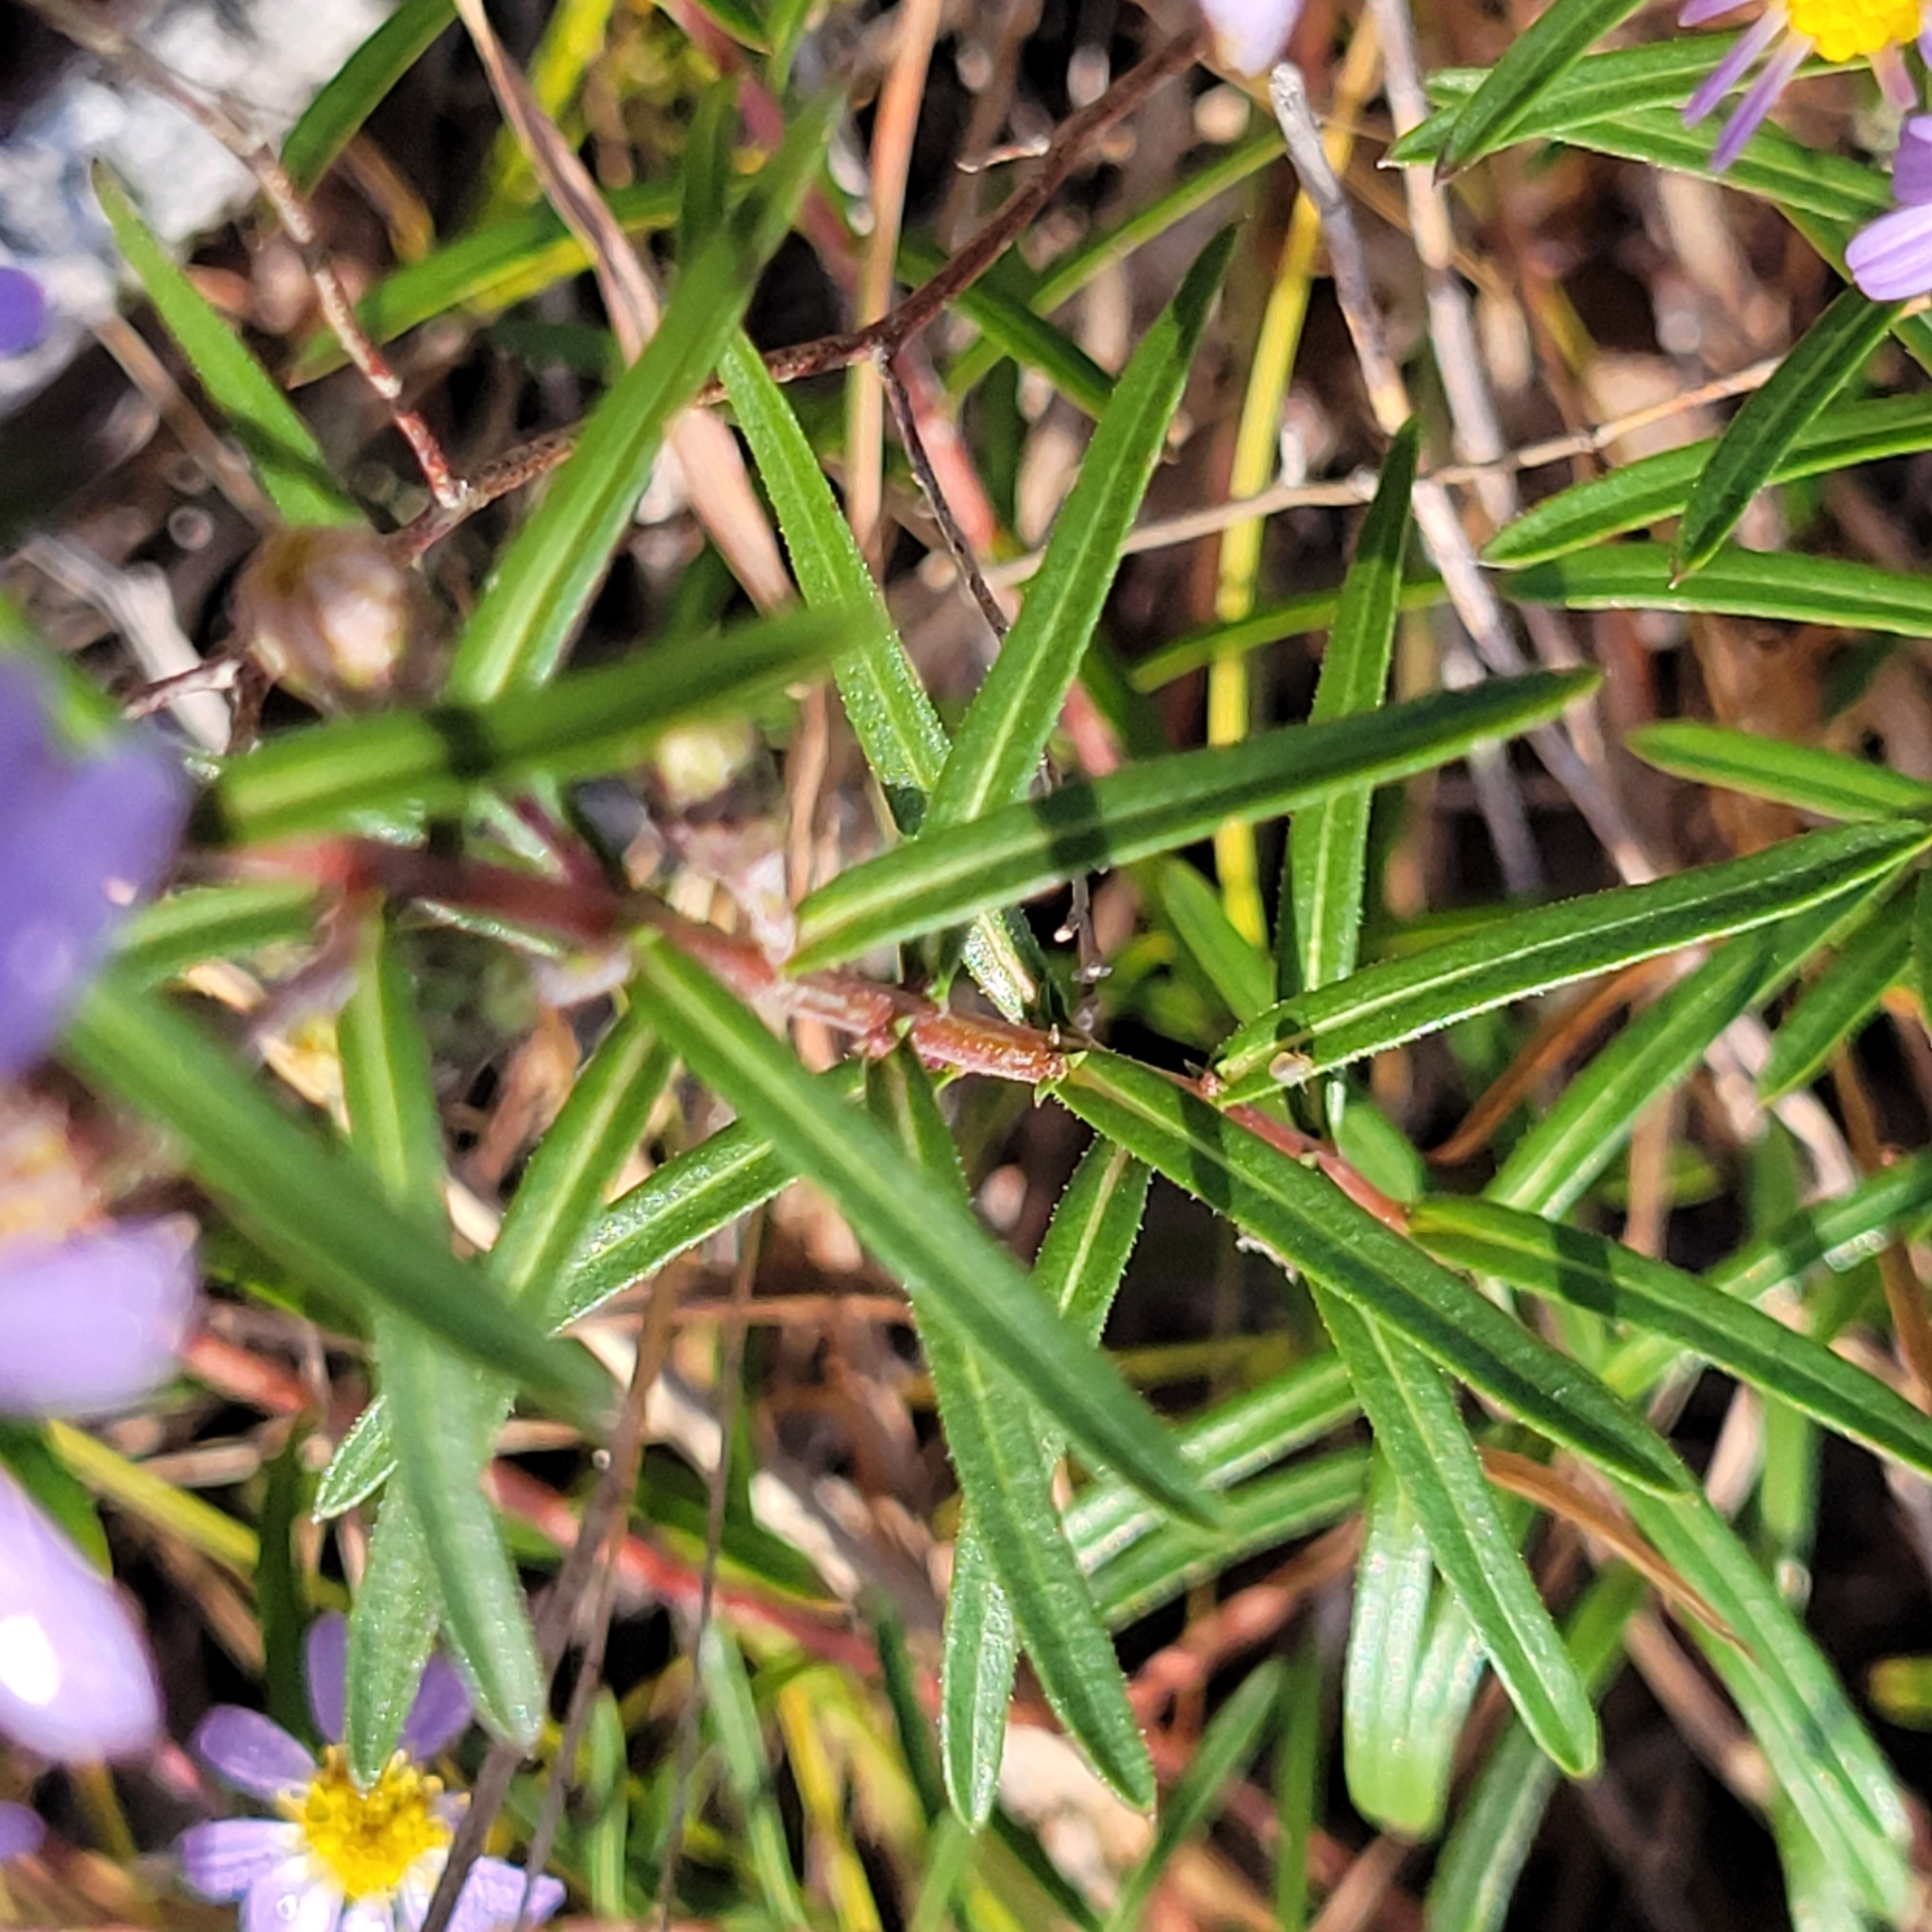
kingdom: Plantae
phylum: Tracheophyta
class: Magnoliopsida
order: Asterales
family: Asteraceae
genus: Ionactis
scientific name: Ionactis linariifolia
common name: Flax-leaf aster
